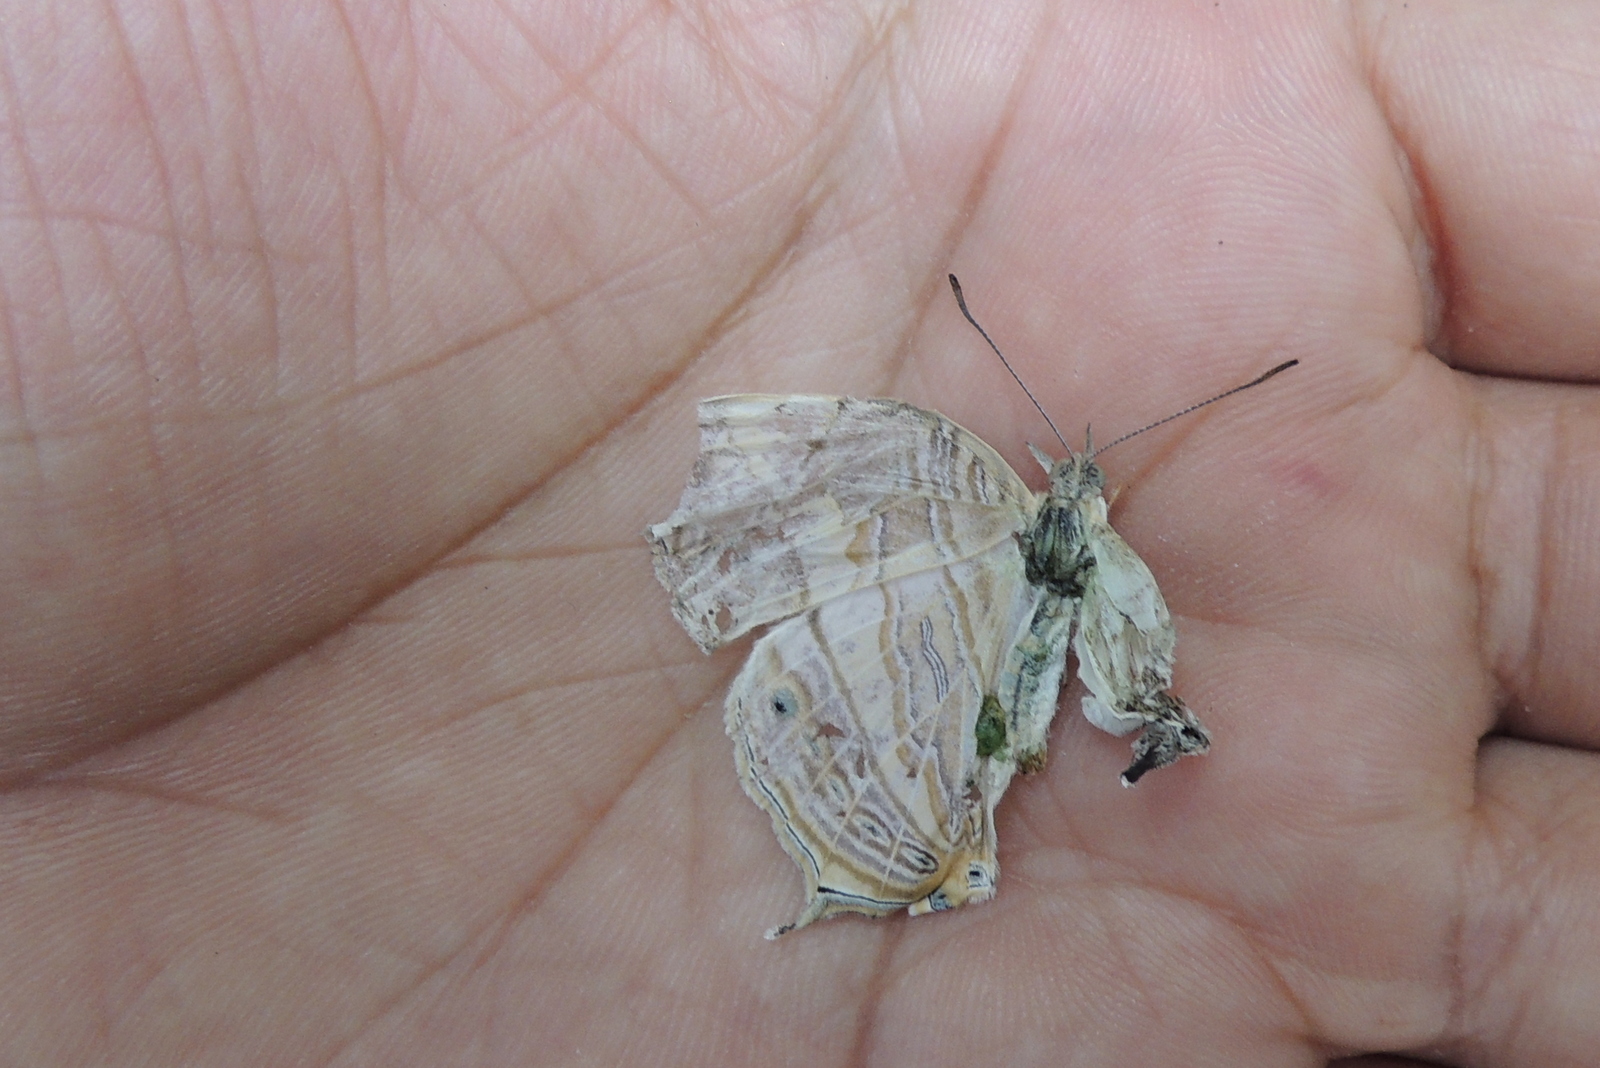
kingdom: Animalia
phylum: Arthropoda
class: Insecta
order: Lepidoptera
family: Nymphalidae
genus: Cyrestis
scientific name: Cyrestis cocles
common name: Marbled map
